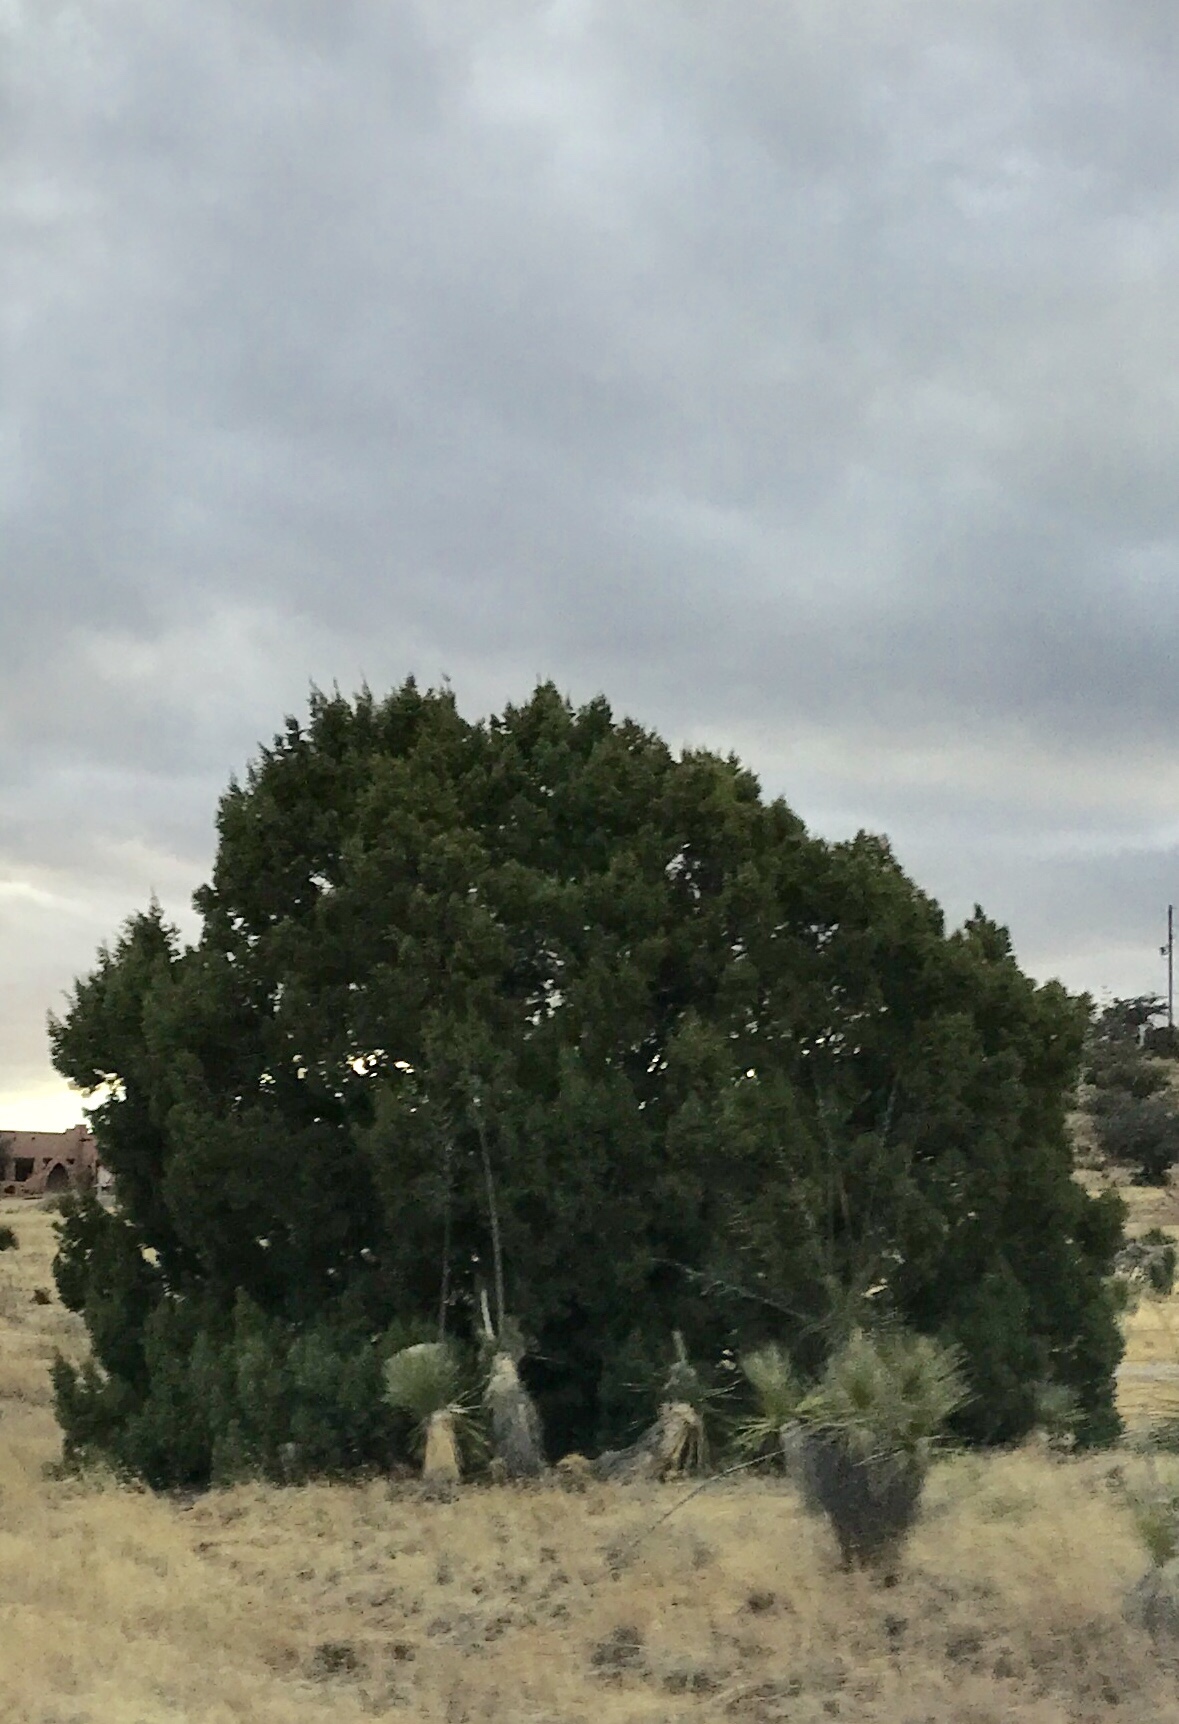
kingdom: Plantae
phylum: Tracheophyta
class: Pinopsida
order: Pinales
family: Cupressaceae
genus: Juniperus
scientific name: Juniperus deppeana
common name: Alligator juniper
